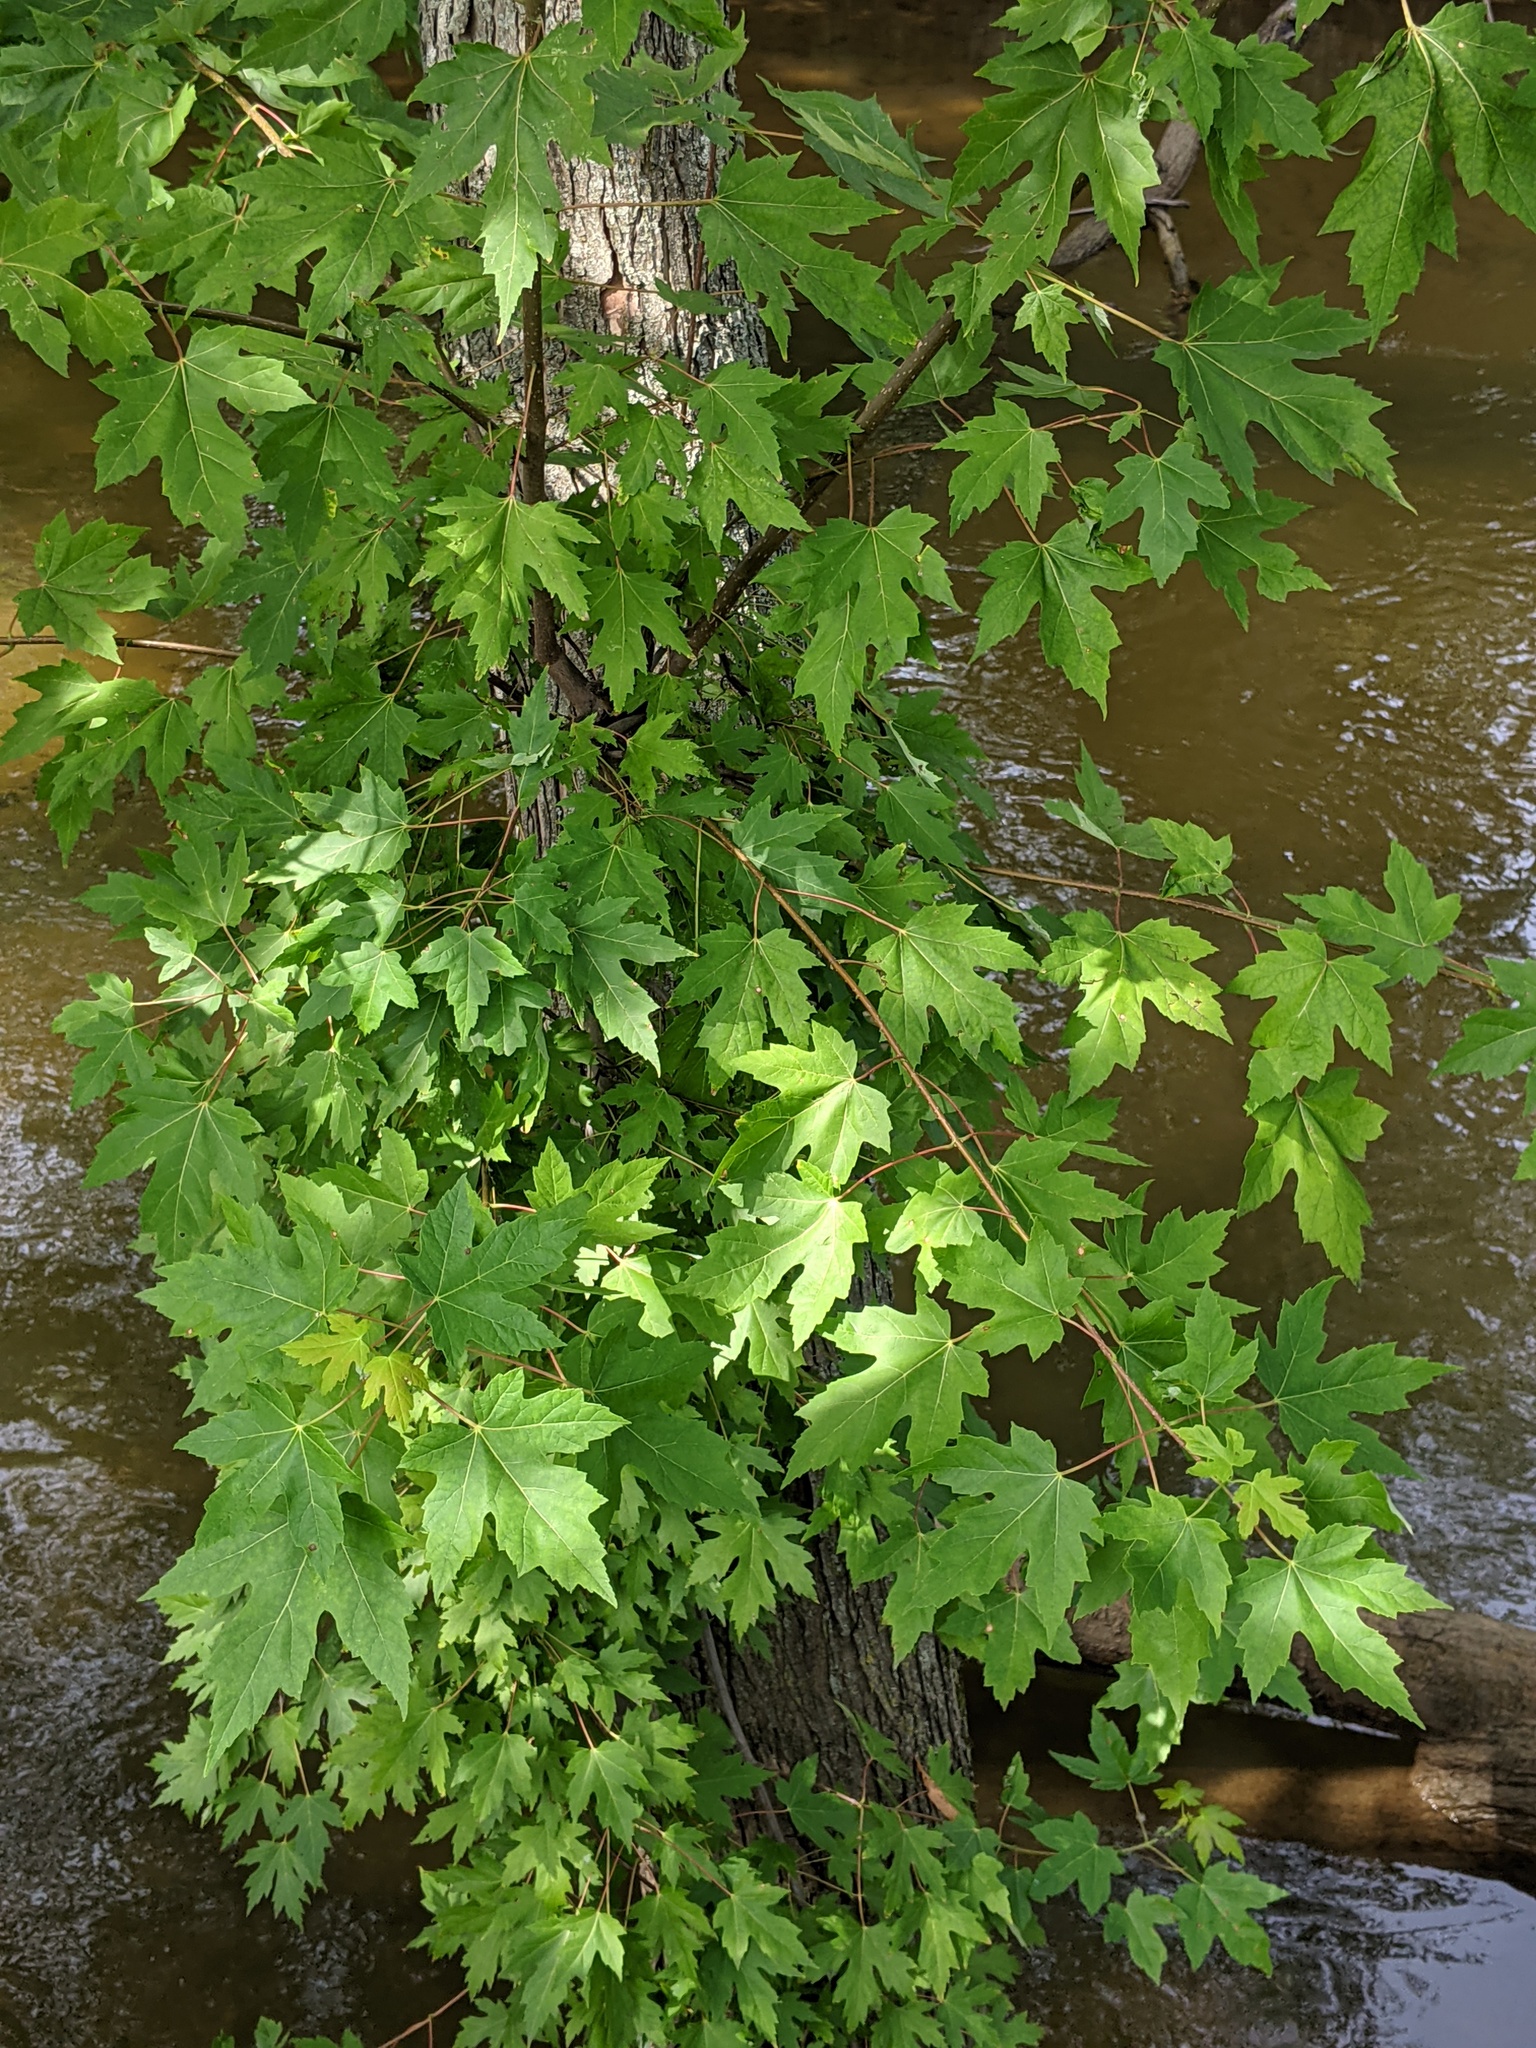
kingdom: Plantae
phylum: Tracheophyta
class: Magnoliopsida
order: Sapindales
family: Sapindaceae
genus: Acer
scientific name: Acer saccharinum
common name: Silver maple
